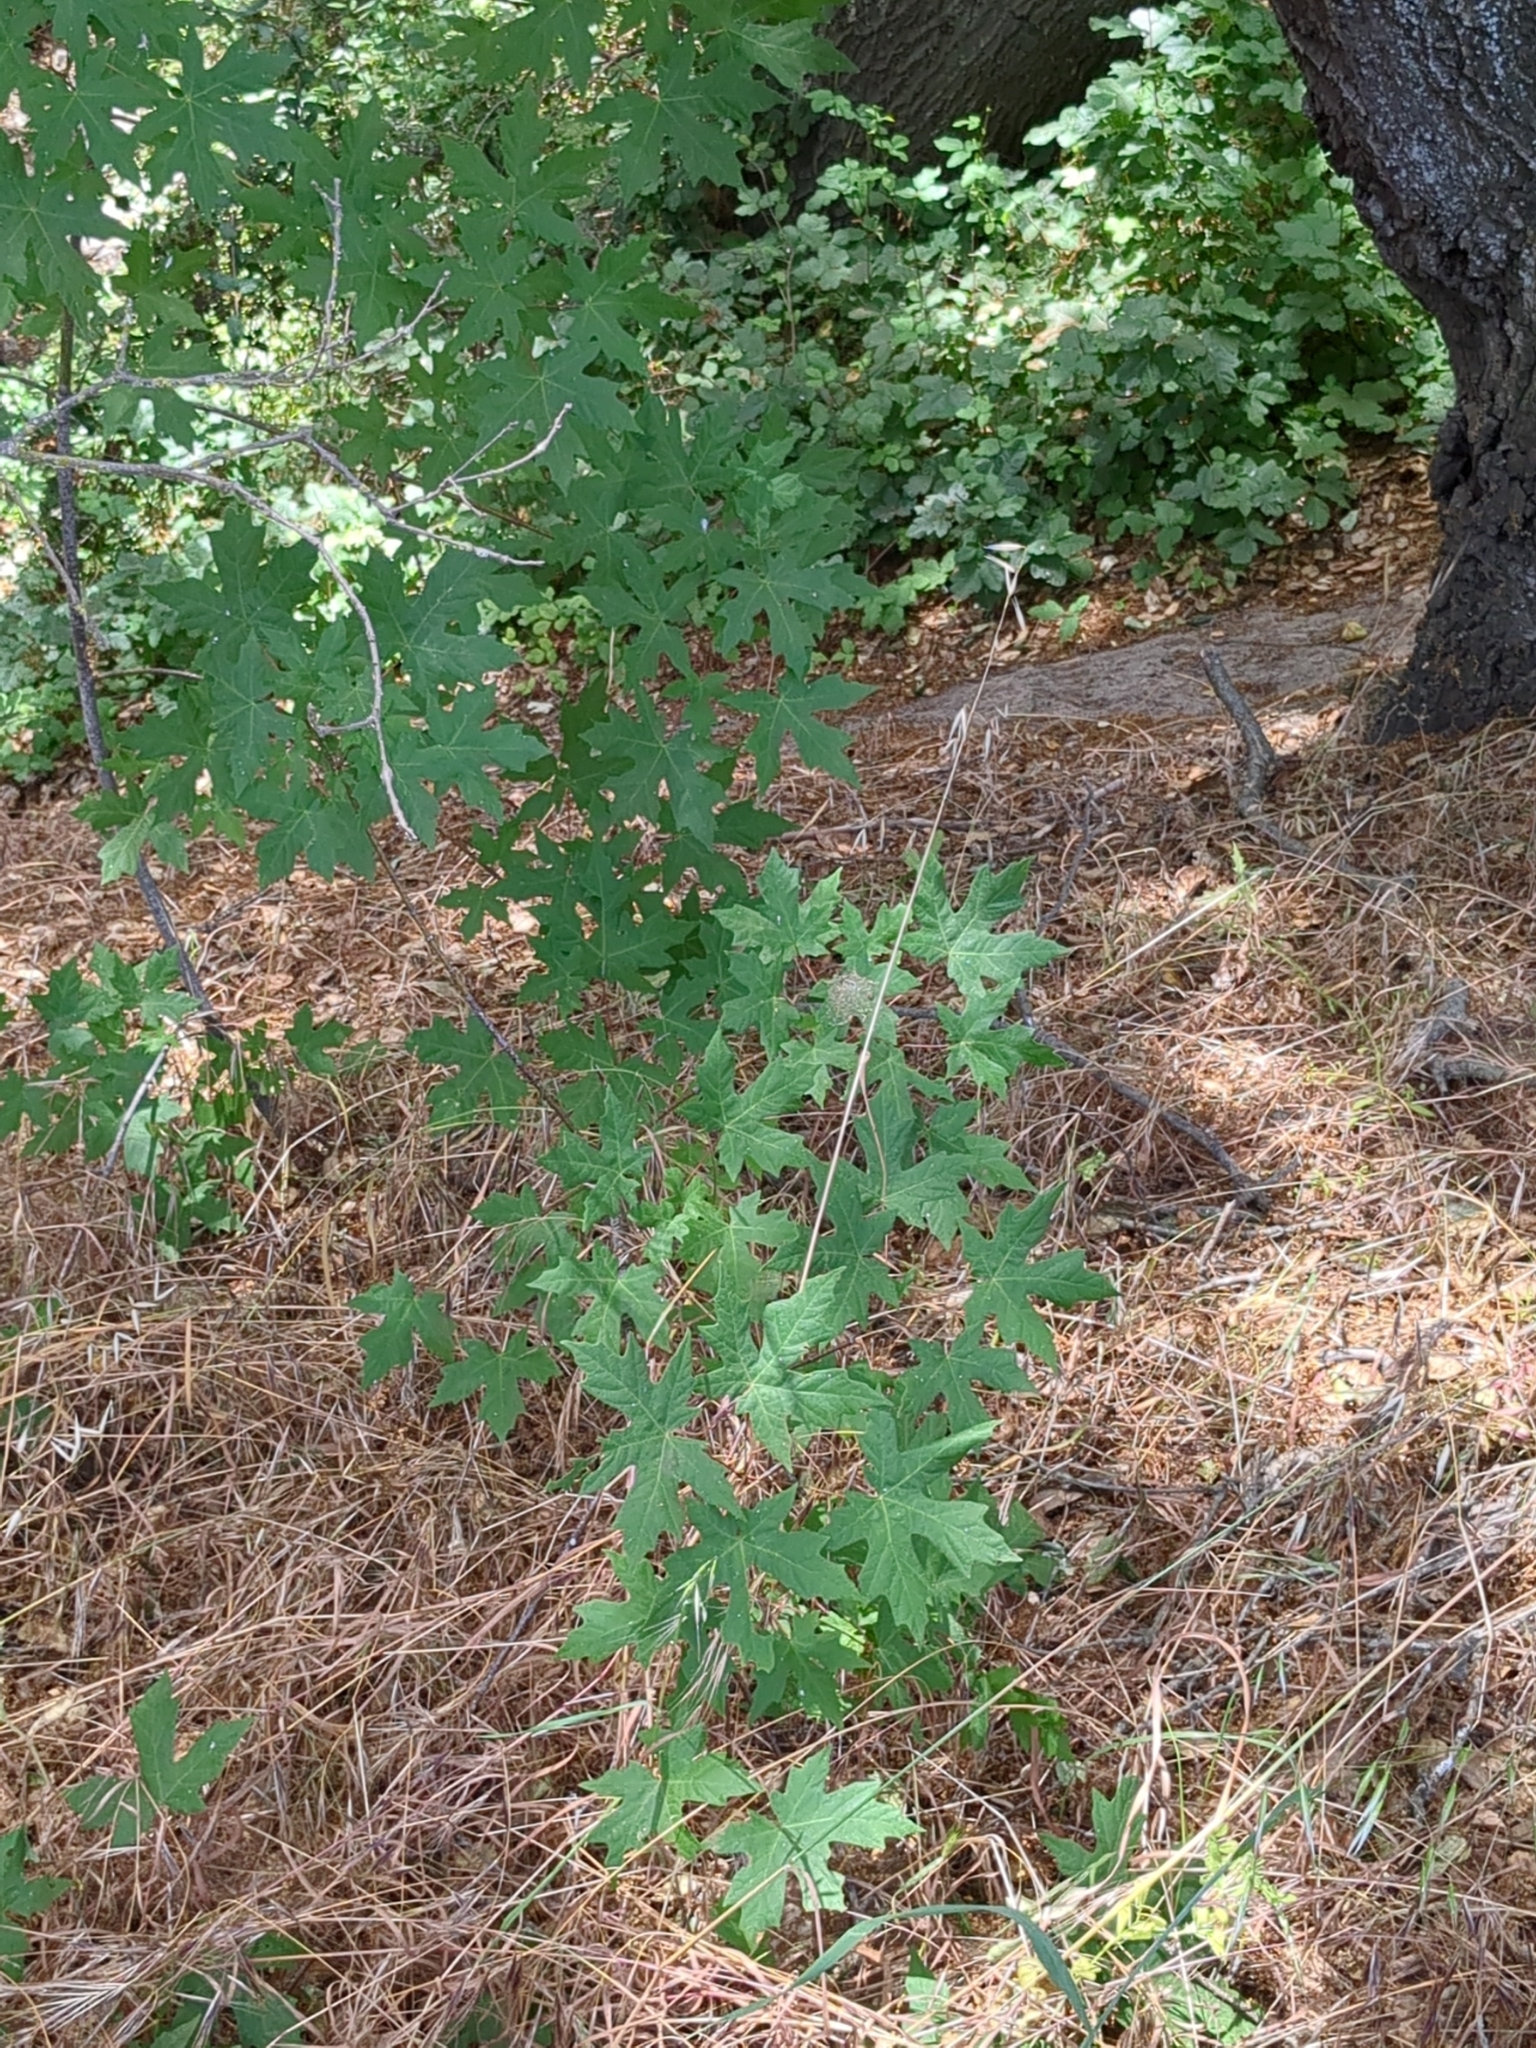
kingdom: Plantae
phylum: Tracheophyta
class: Magnoliopsida
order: Sapindales
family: Sapindaceae
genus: Acer
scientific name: Acer macrophyllum
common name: Oregon maple
